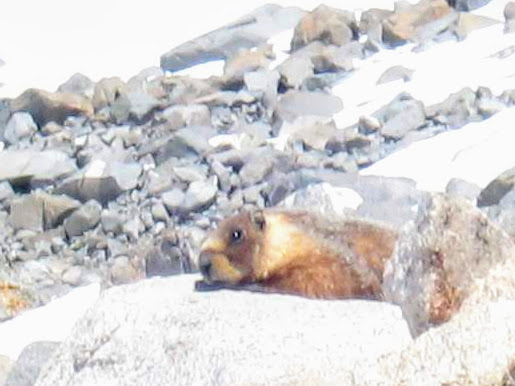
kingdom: Animalia
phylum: Chordata
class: Mammalia
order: Rodentia
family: Sciuridae
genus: Marmota
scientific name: Marmota flaviventris
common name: Yellow-bellied marmot
